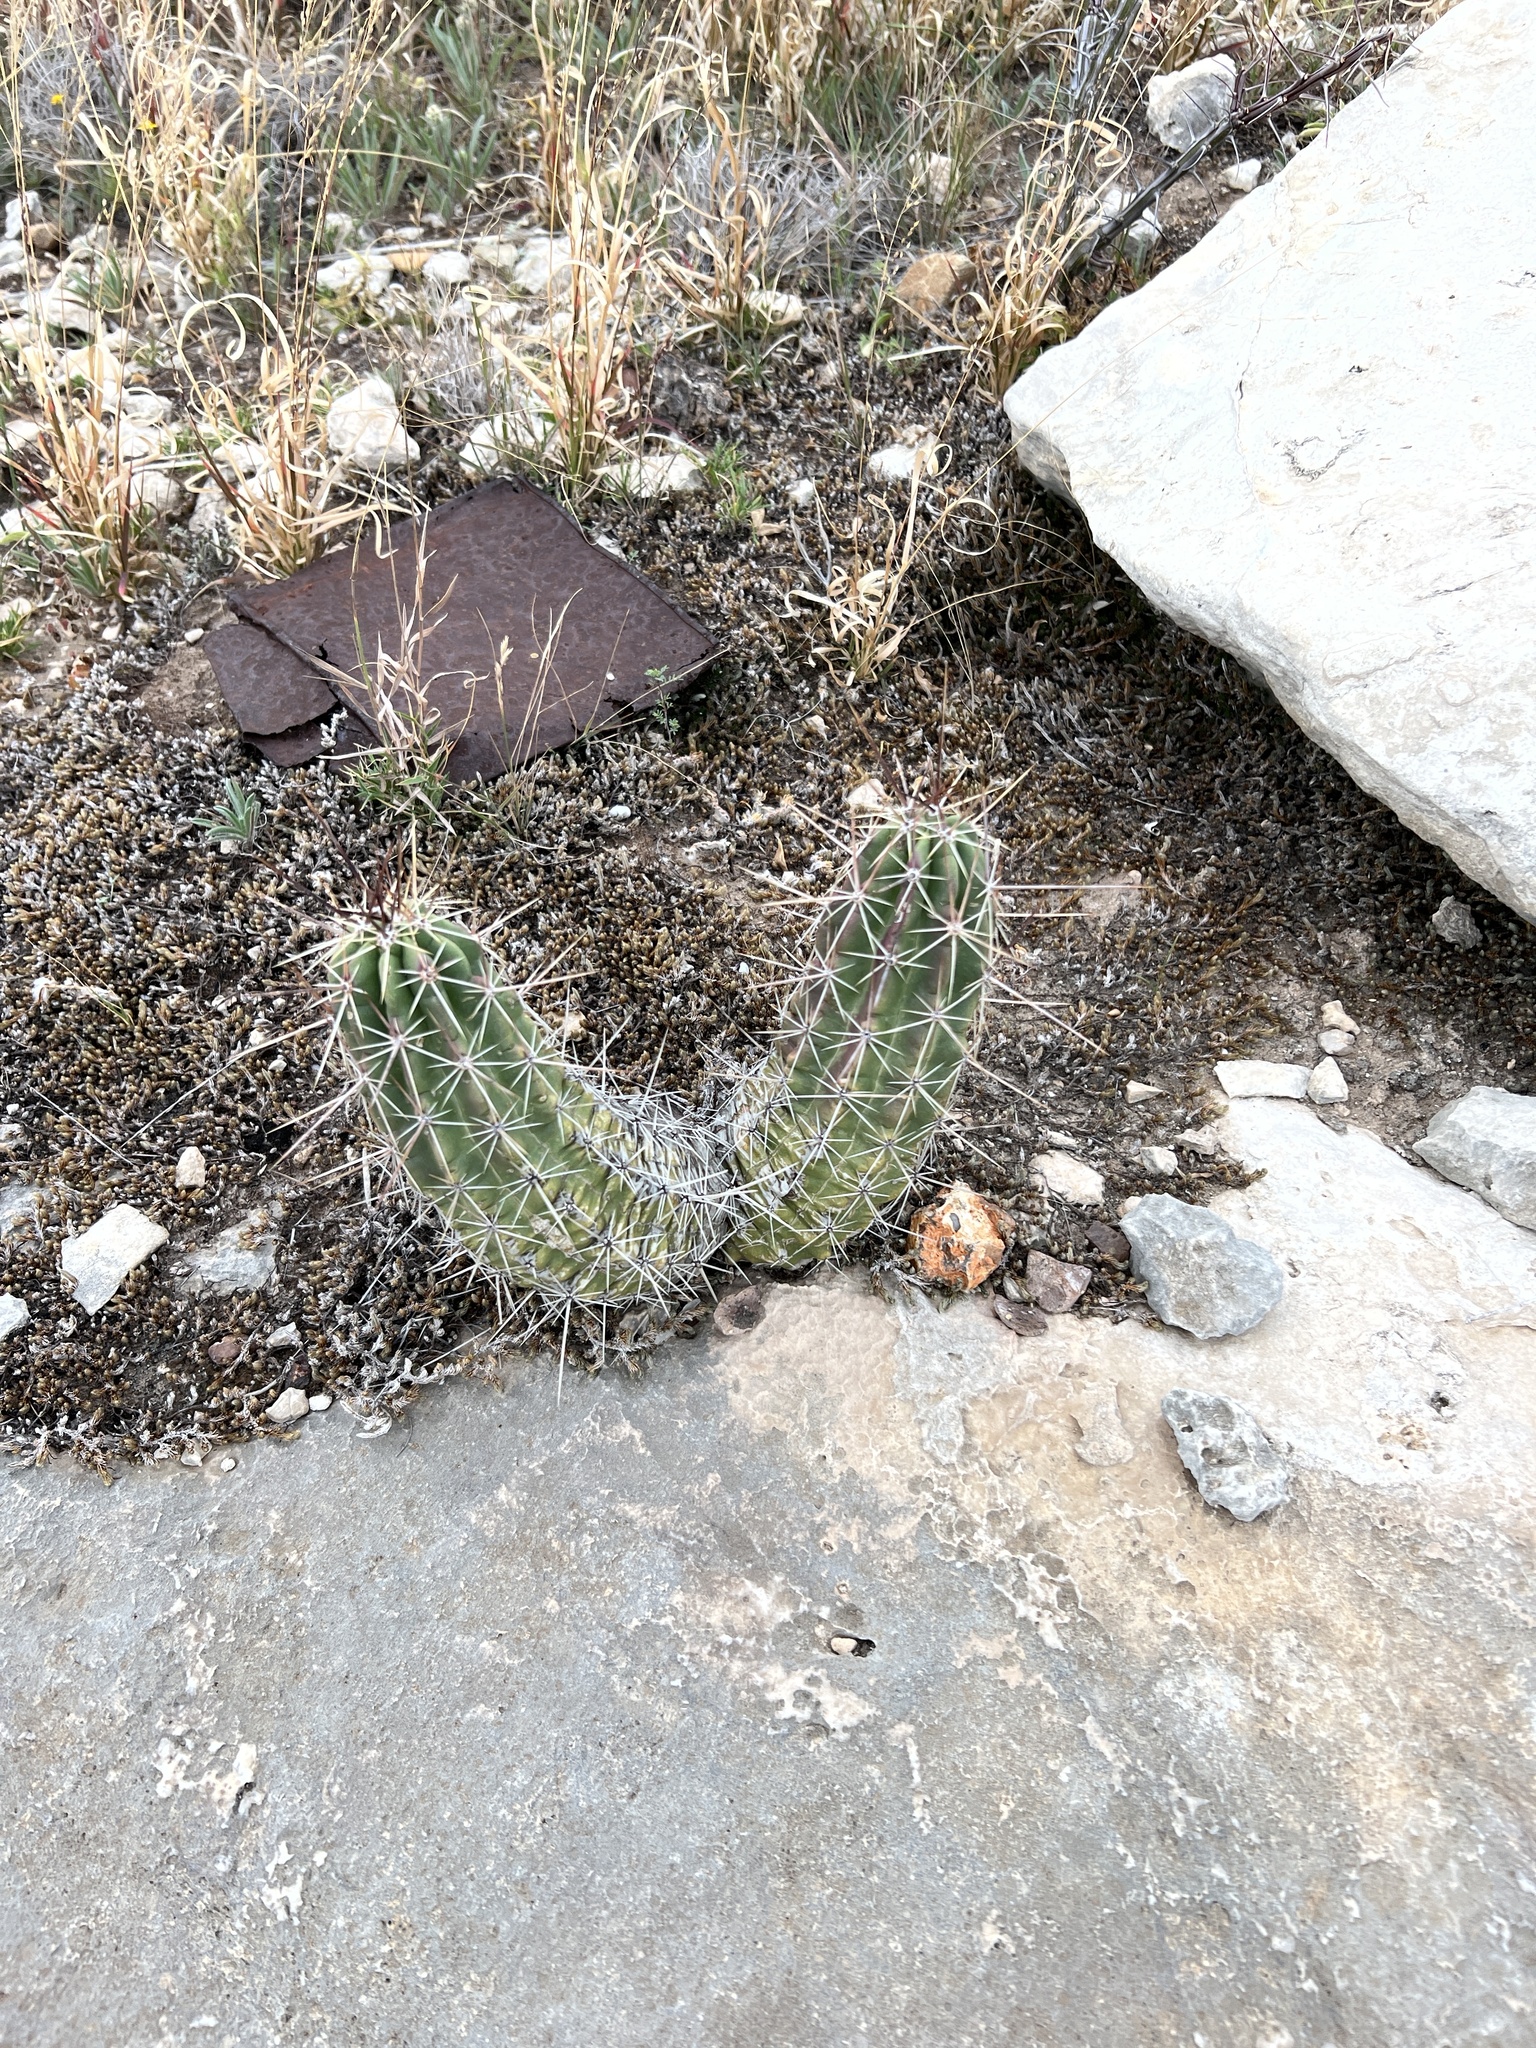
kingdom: Plantae
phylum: Tracheophyta
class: Magnoliopsida
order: Caryophyllales
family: Cactaceae
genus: Echinocereus
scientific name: Echinocereus enneacanthus
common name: Pitaya
